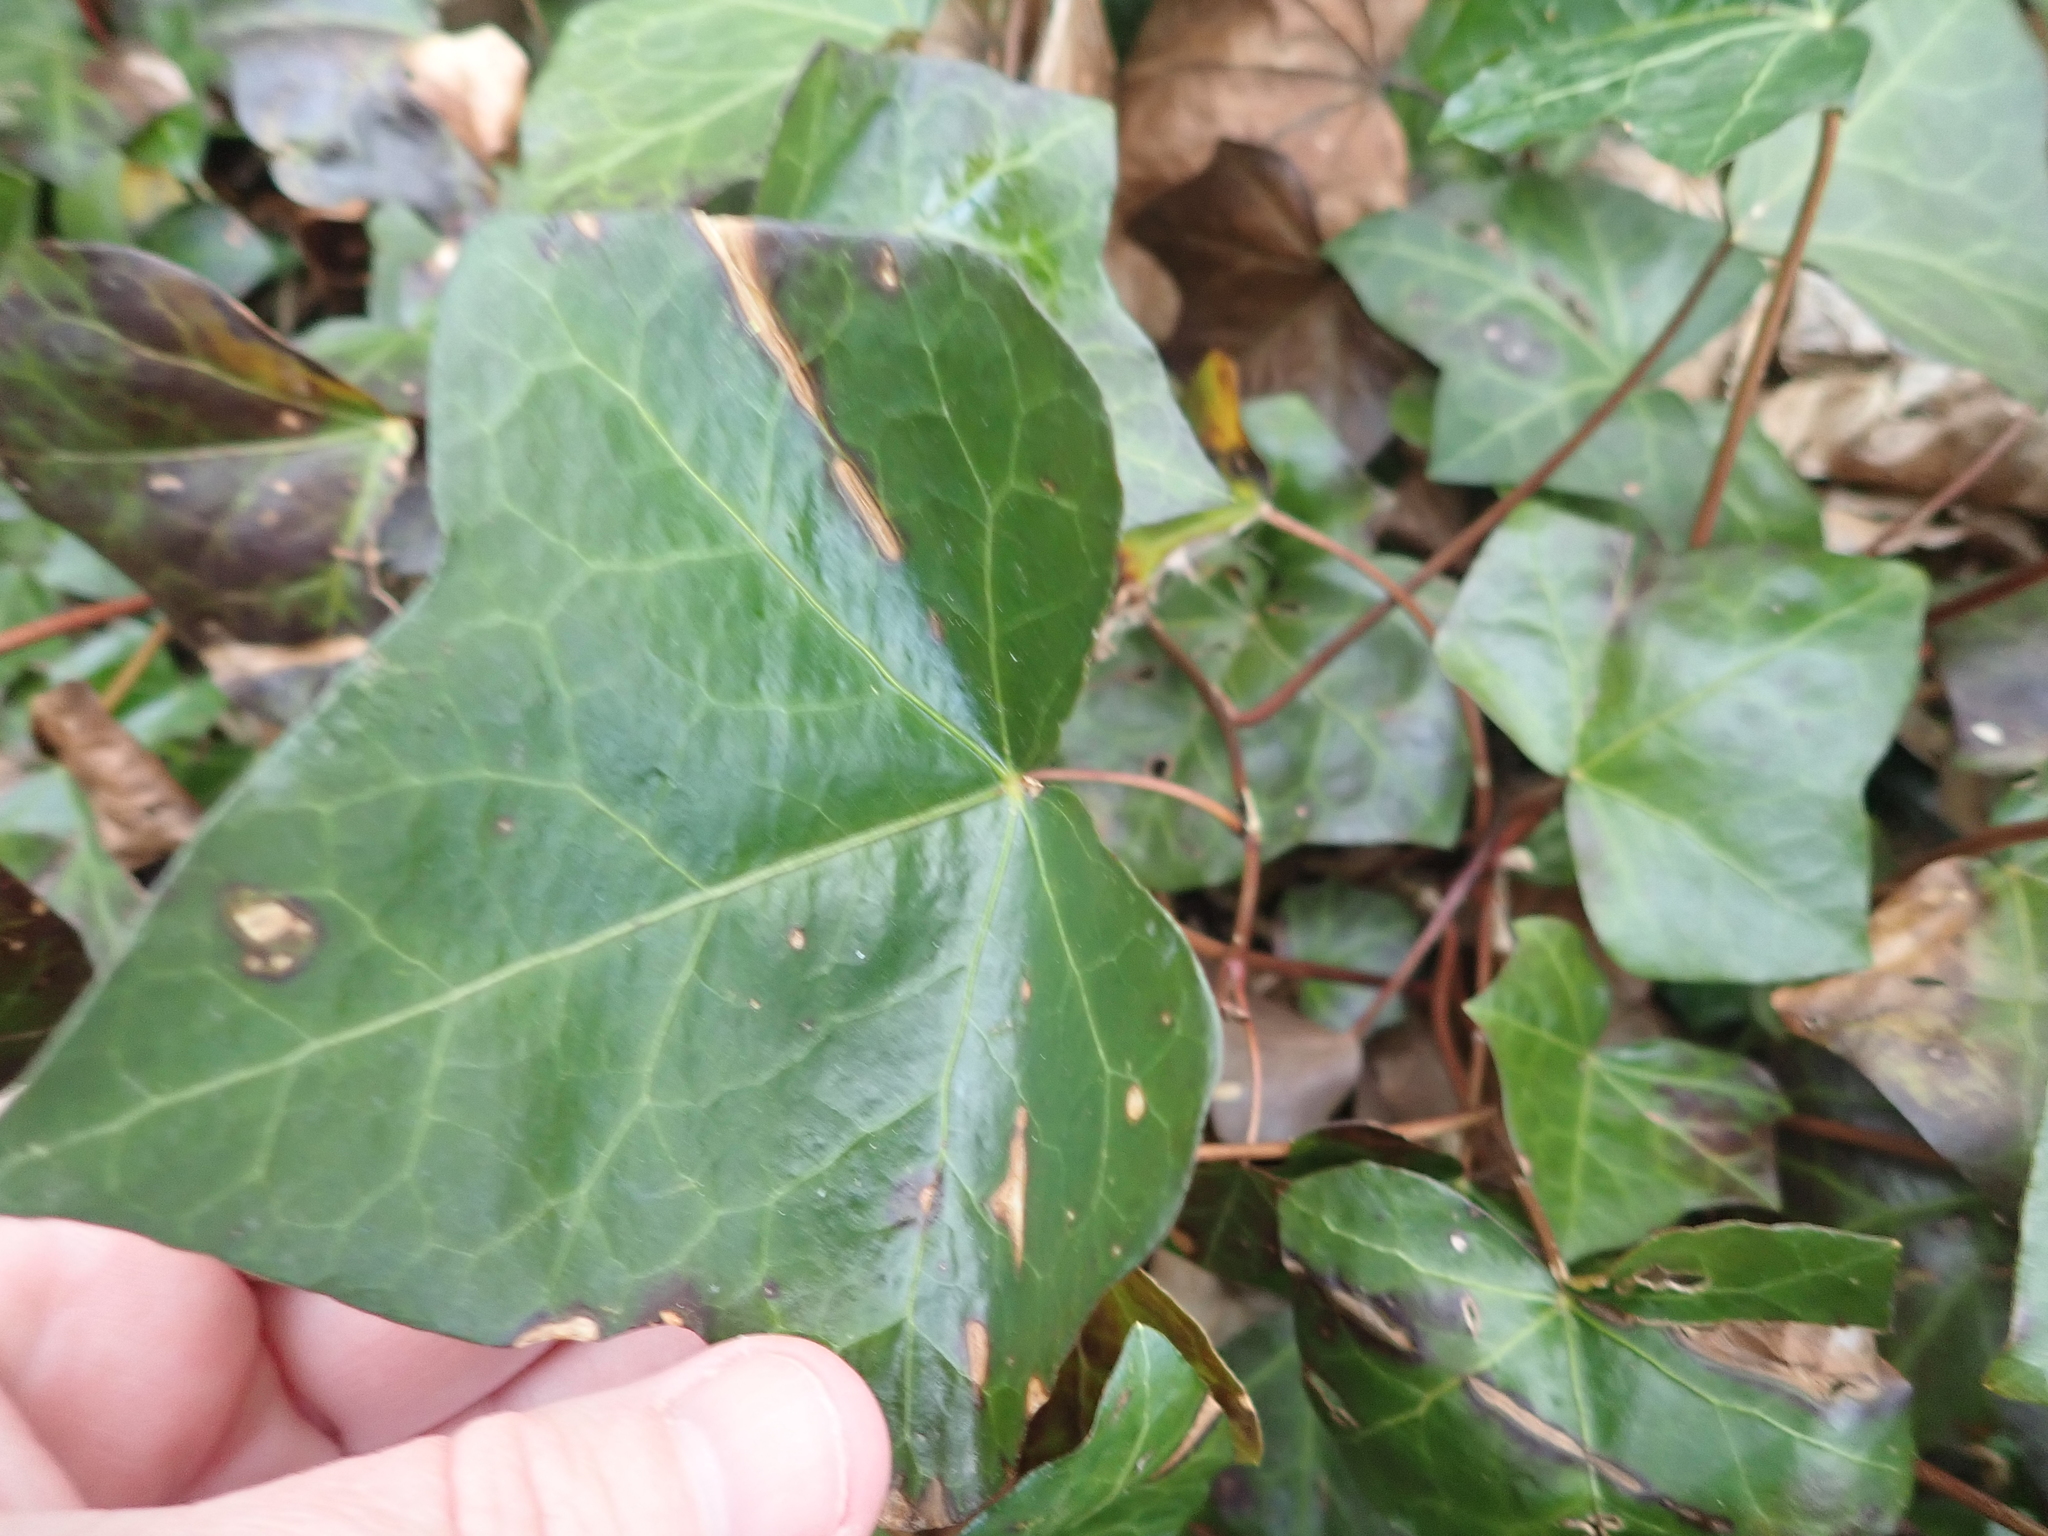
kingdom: Plantae
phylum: Tracheophyta
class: Magnoliopsida
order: Apiales
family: Araliaceae
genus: Hedera
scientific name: Hedera helix
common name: Ivy
